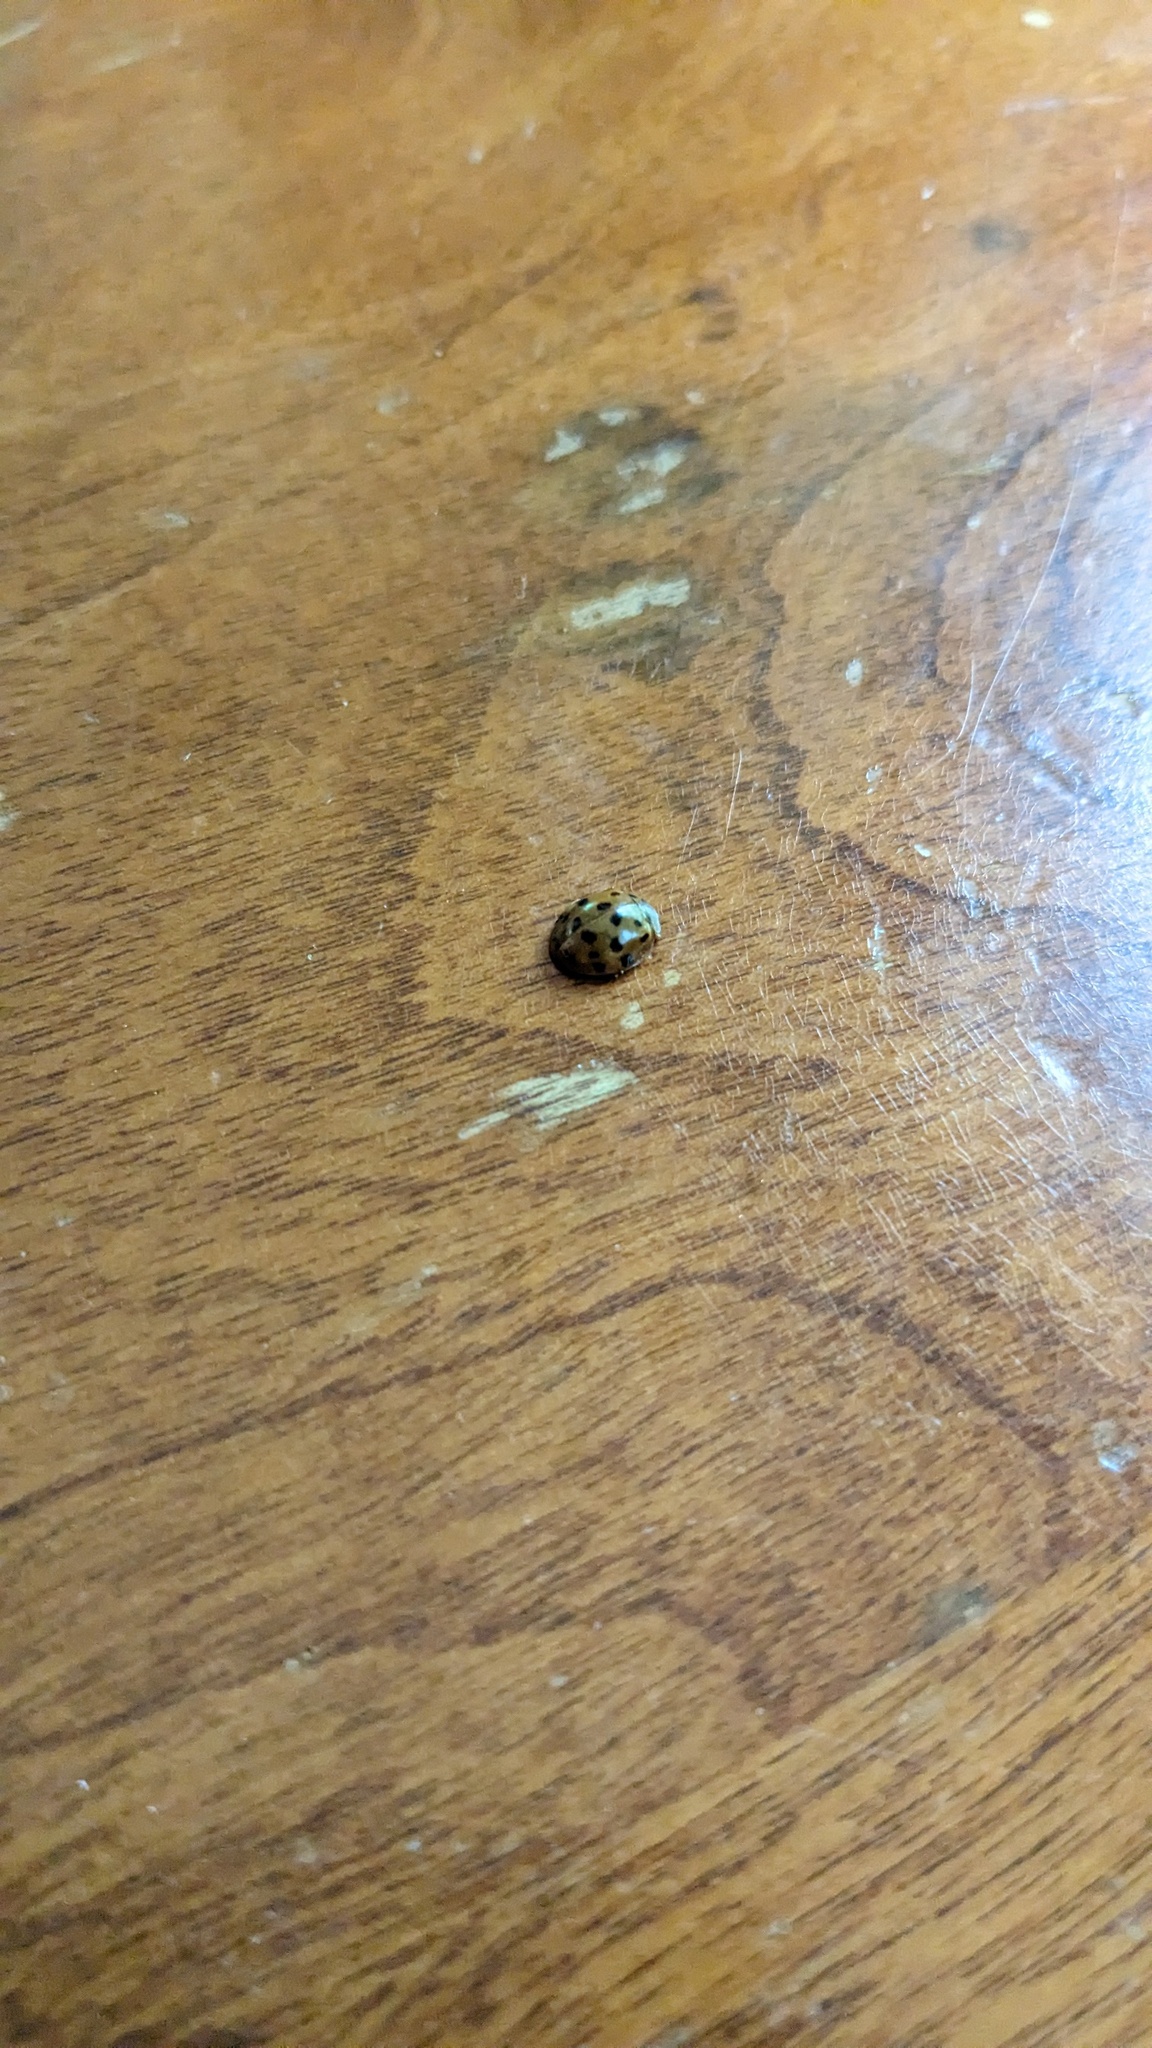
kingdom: Animalia
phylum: Arthropoda
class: Insecta
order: Coleoptera
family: Coccinellidae
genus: Harmonia
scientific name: Harmonia axyridis
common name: Harlequin ladybird
